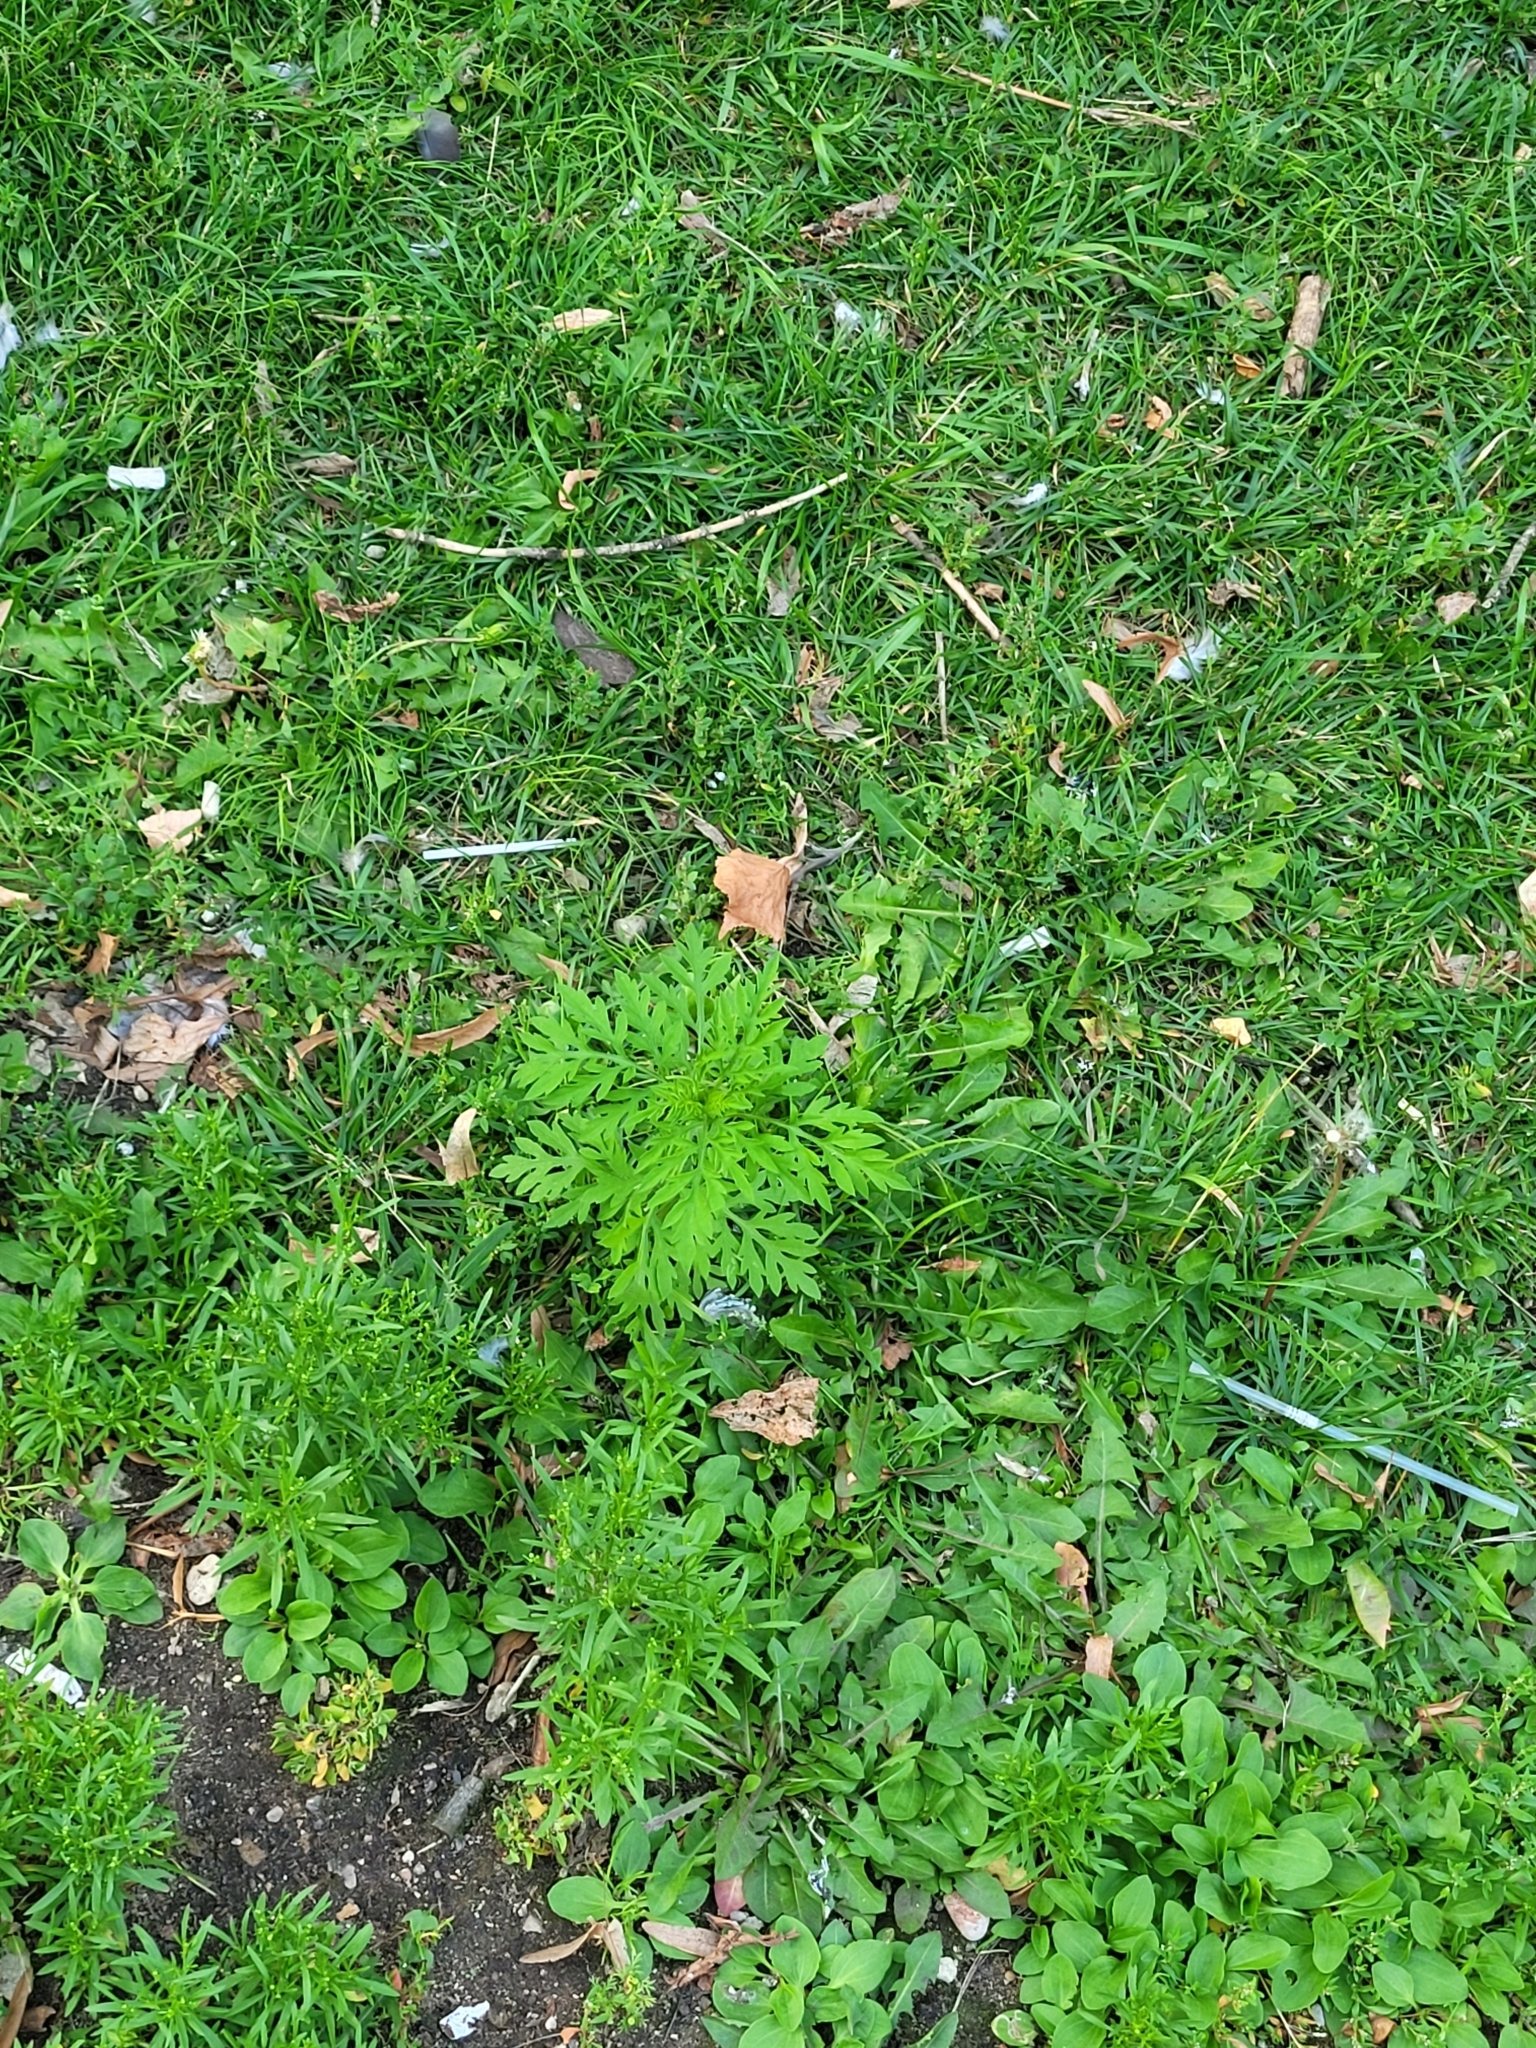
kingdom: Plantae
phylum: Tracheophyta
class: Magnoliopsida
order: Asterales
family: Asteraceae
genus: Ambrosia
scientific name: Ambrosia artemisiifolia
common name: Annual ragweed
